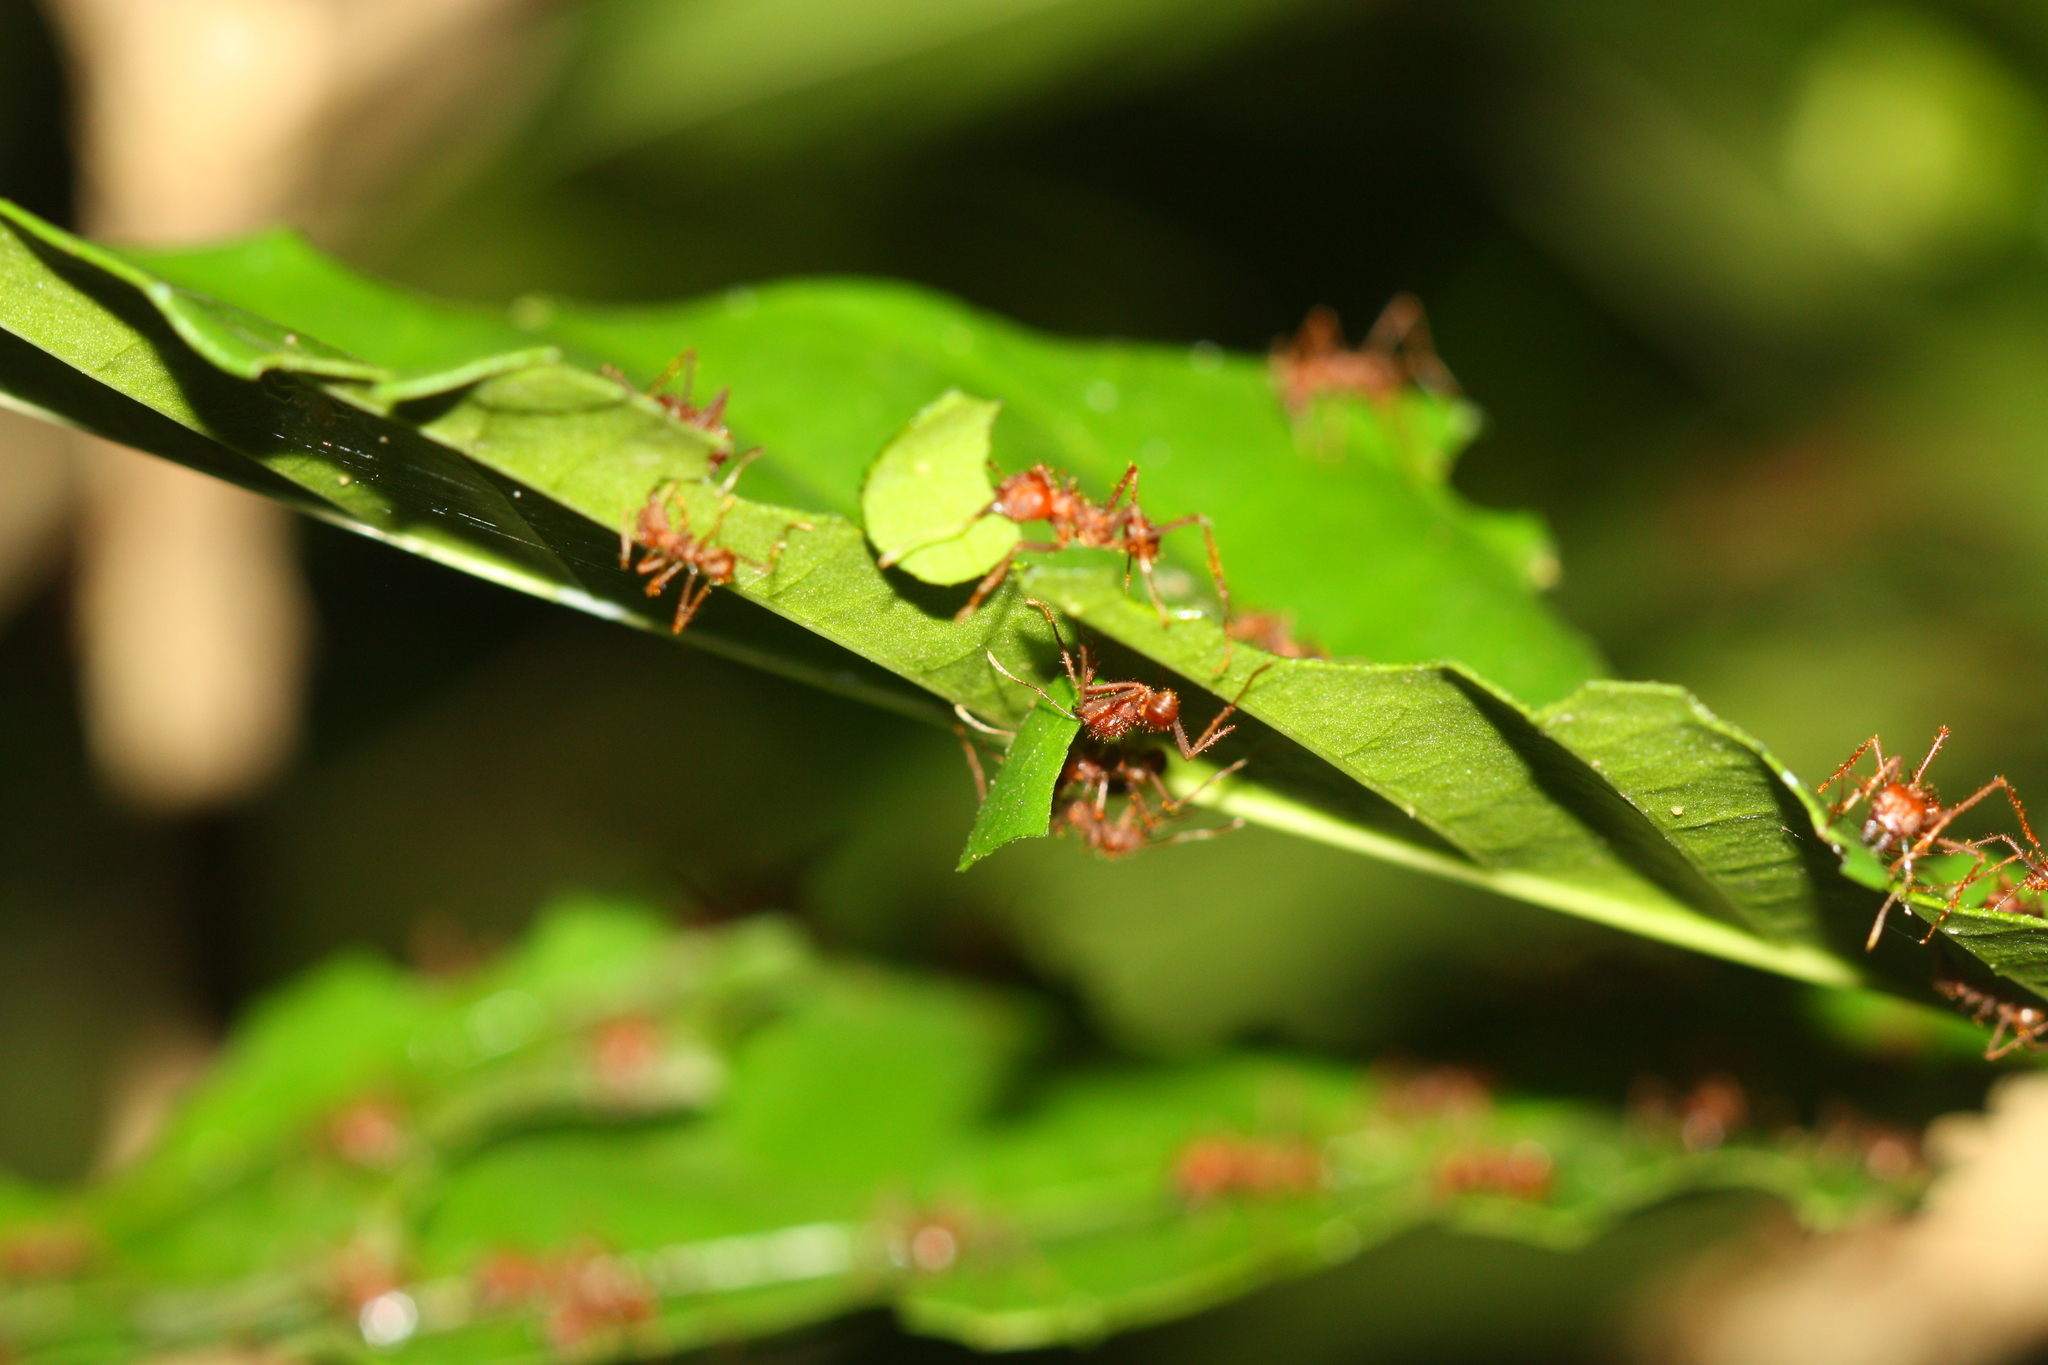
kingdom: Animalia
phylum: Arthropoda
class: Insecta
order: Hymenoptera
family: Formicidae
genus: Atta
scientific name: Atta mexicana
